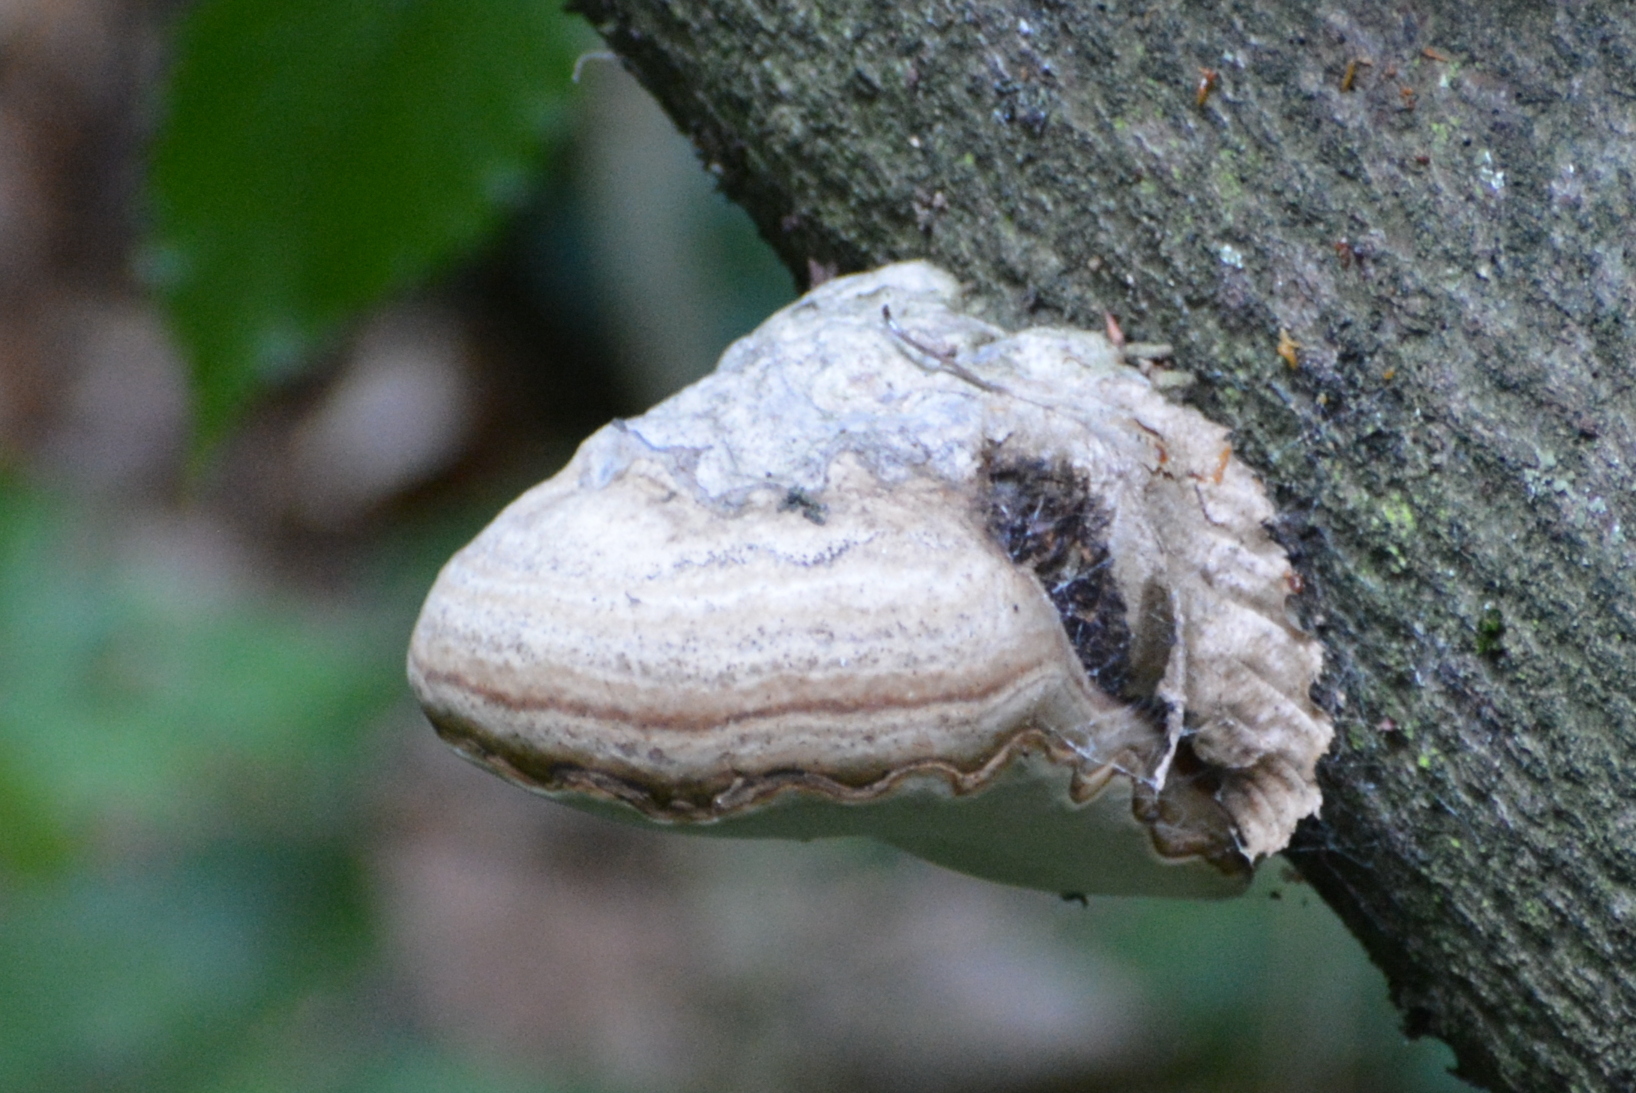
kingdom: Fungi
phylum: Basidiomycota
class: Agaricomycetes
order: Polyporales
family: Polyporaceae
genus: Fomes
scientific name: Fomes fomentarius
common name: Hoof fungus
